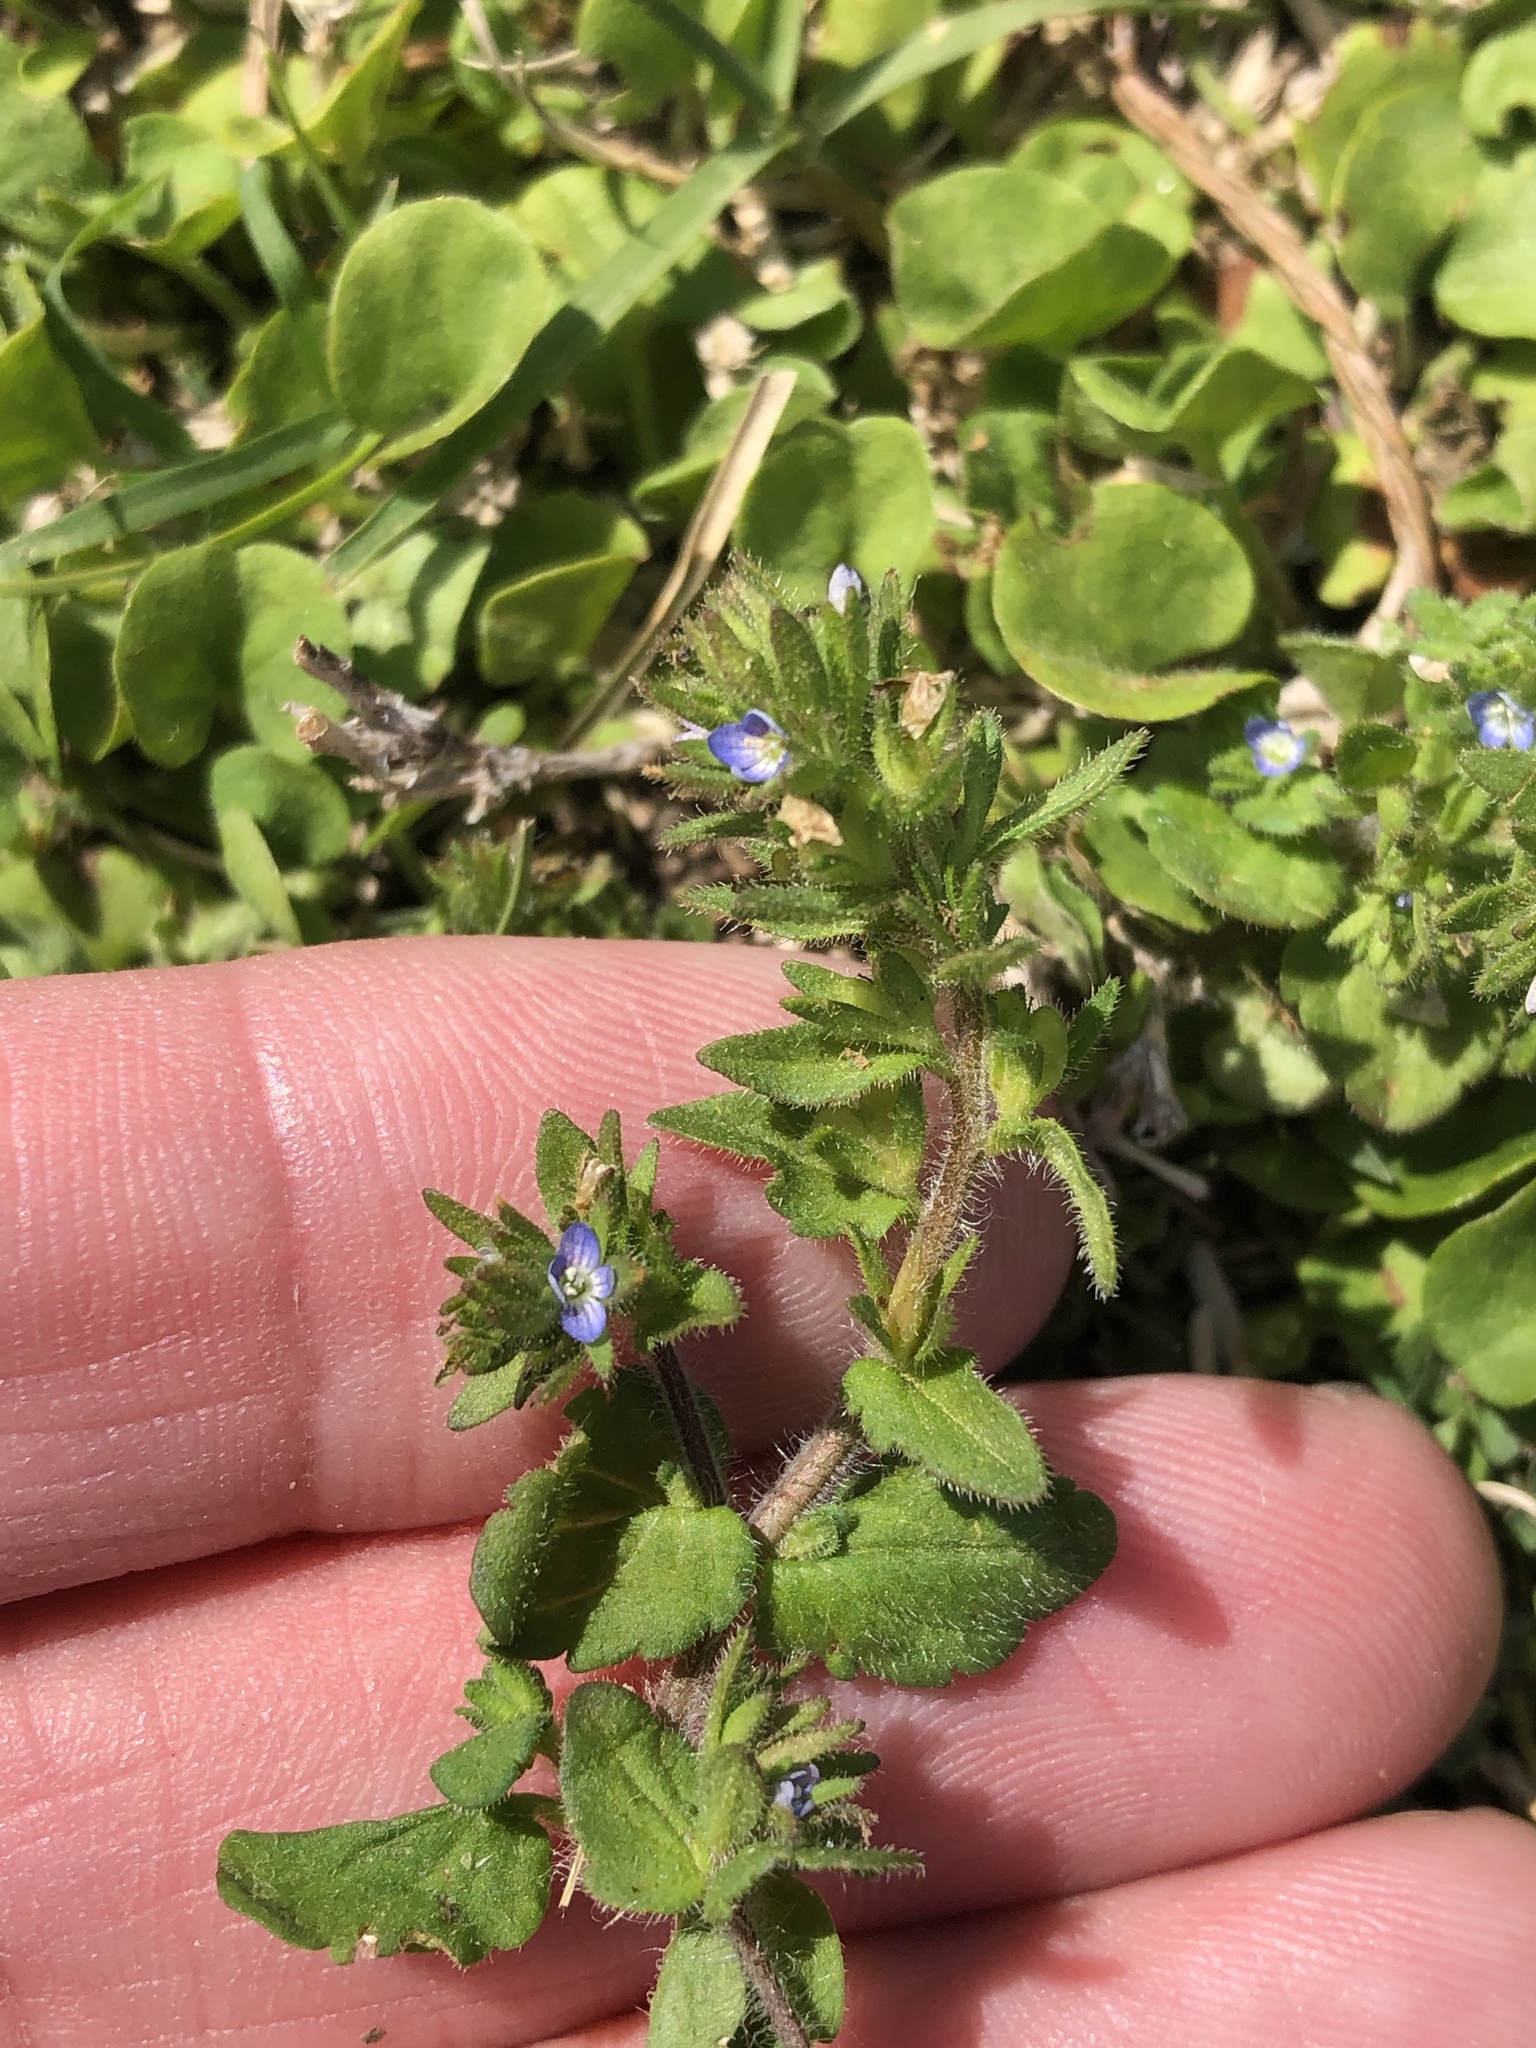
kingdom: Plantae
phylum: Tracheophyta
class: Magnoliopsida
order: Lamiales
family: Plantaginaceae
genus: Veronica
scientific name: Veronica arvensis
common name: Corn speedwell
